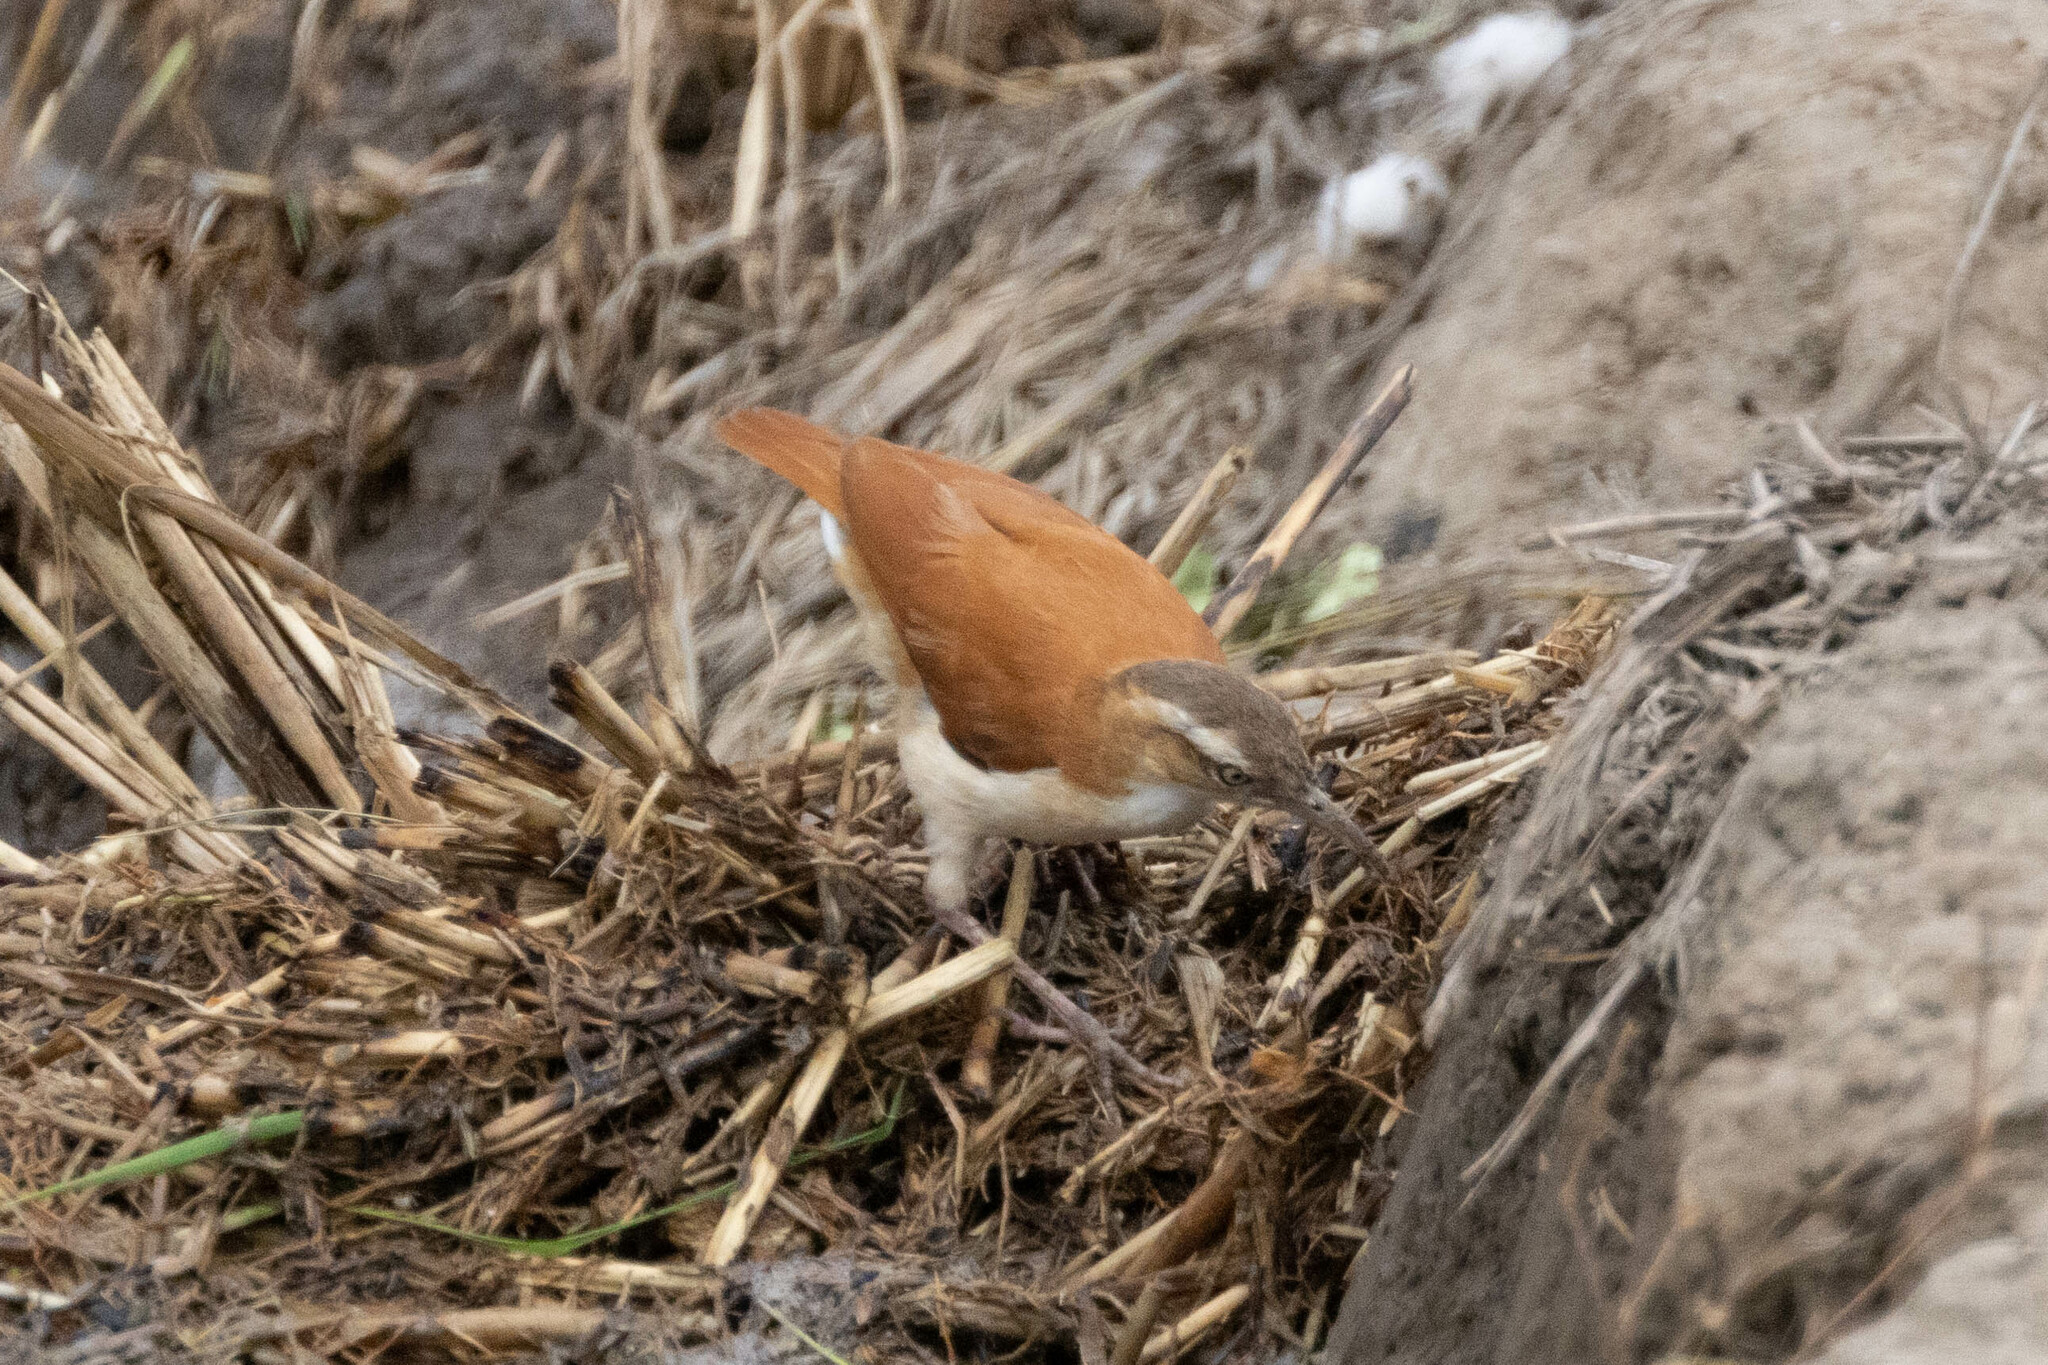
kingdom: Animalia
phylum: Chordata
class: Aves
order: Passeriformes
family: Furnariidae
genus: Furnarius
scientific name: Furnarius leucopus
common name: Pale-legged hornero
